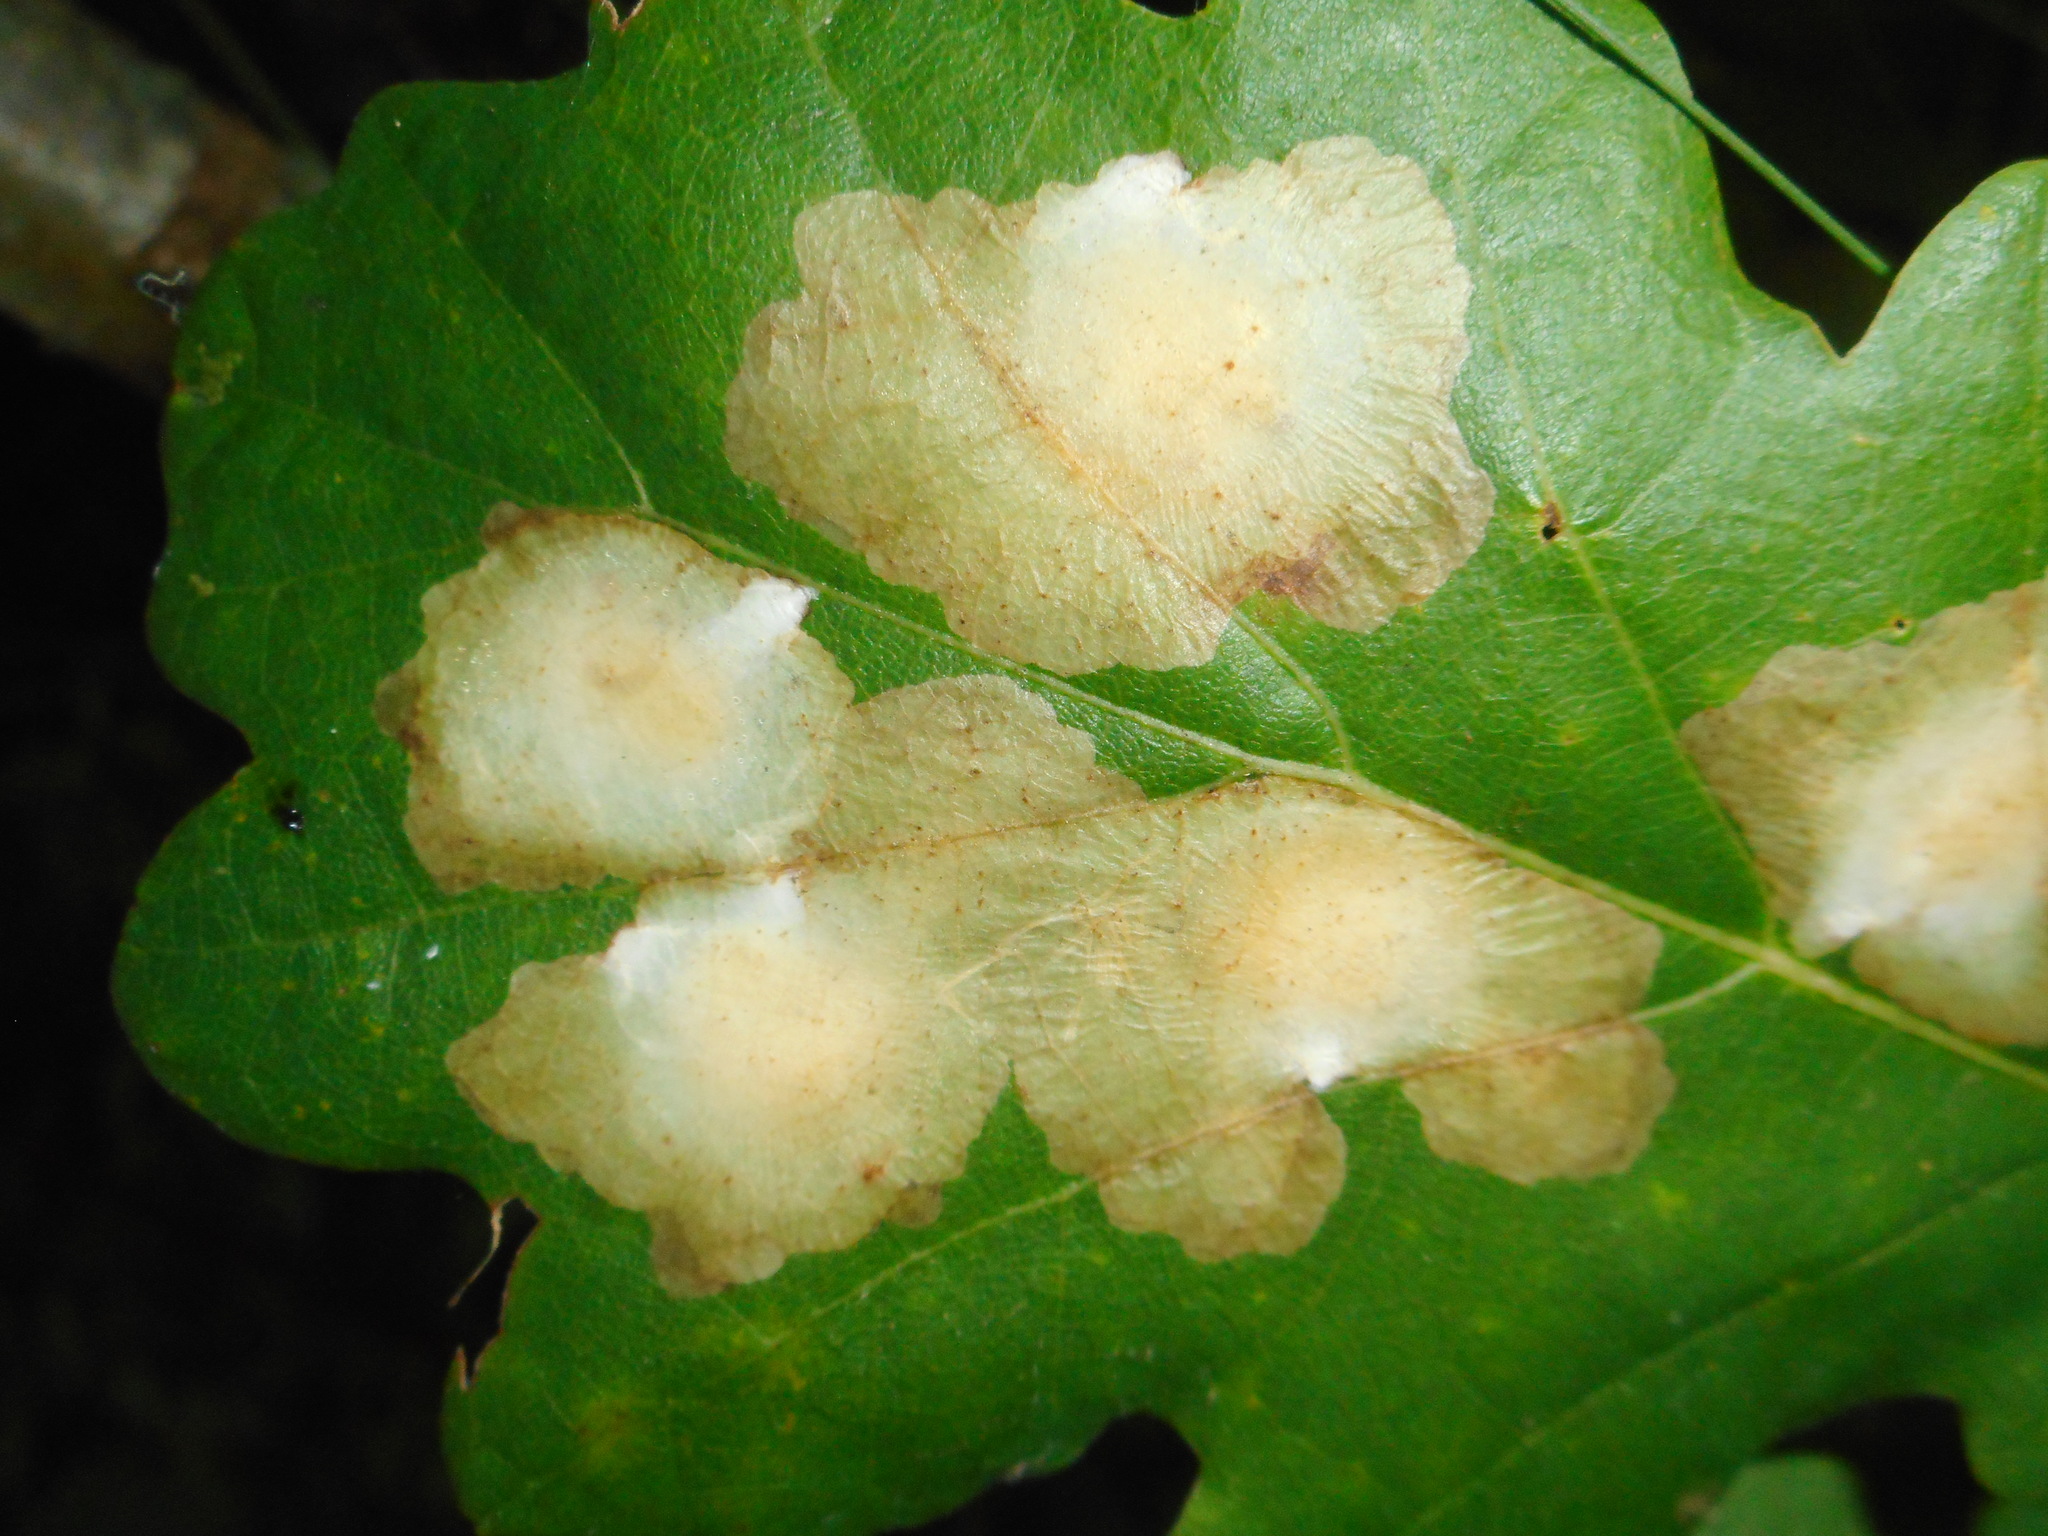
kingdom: Animalia
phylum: Arthropoda
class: Insecta
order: Lepidoptera
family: Tischeriidae
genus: Tischeria
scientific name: Tischeria ekebladella
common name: Oak carl
